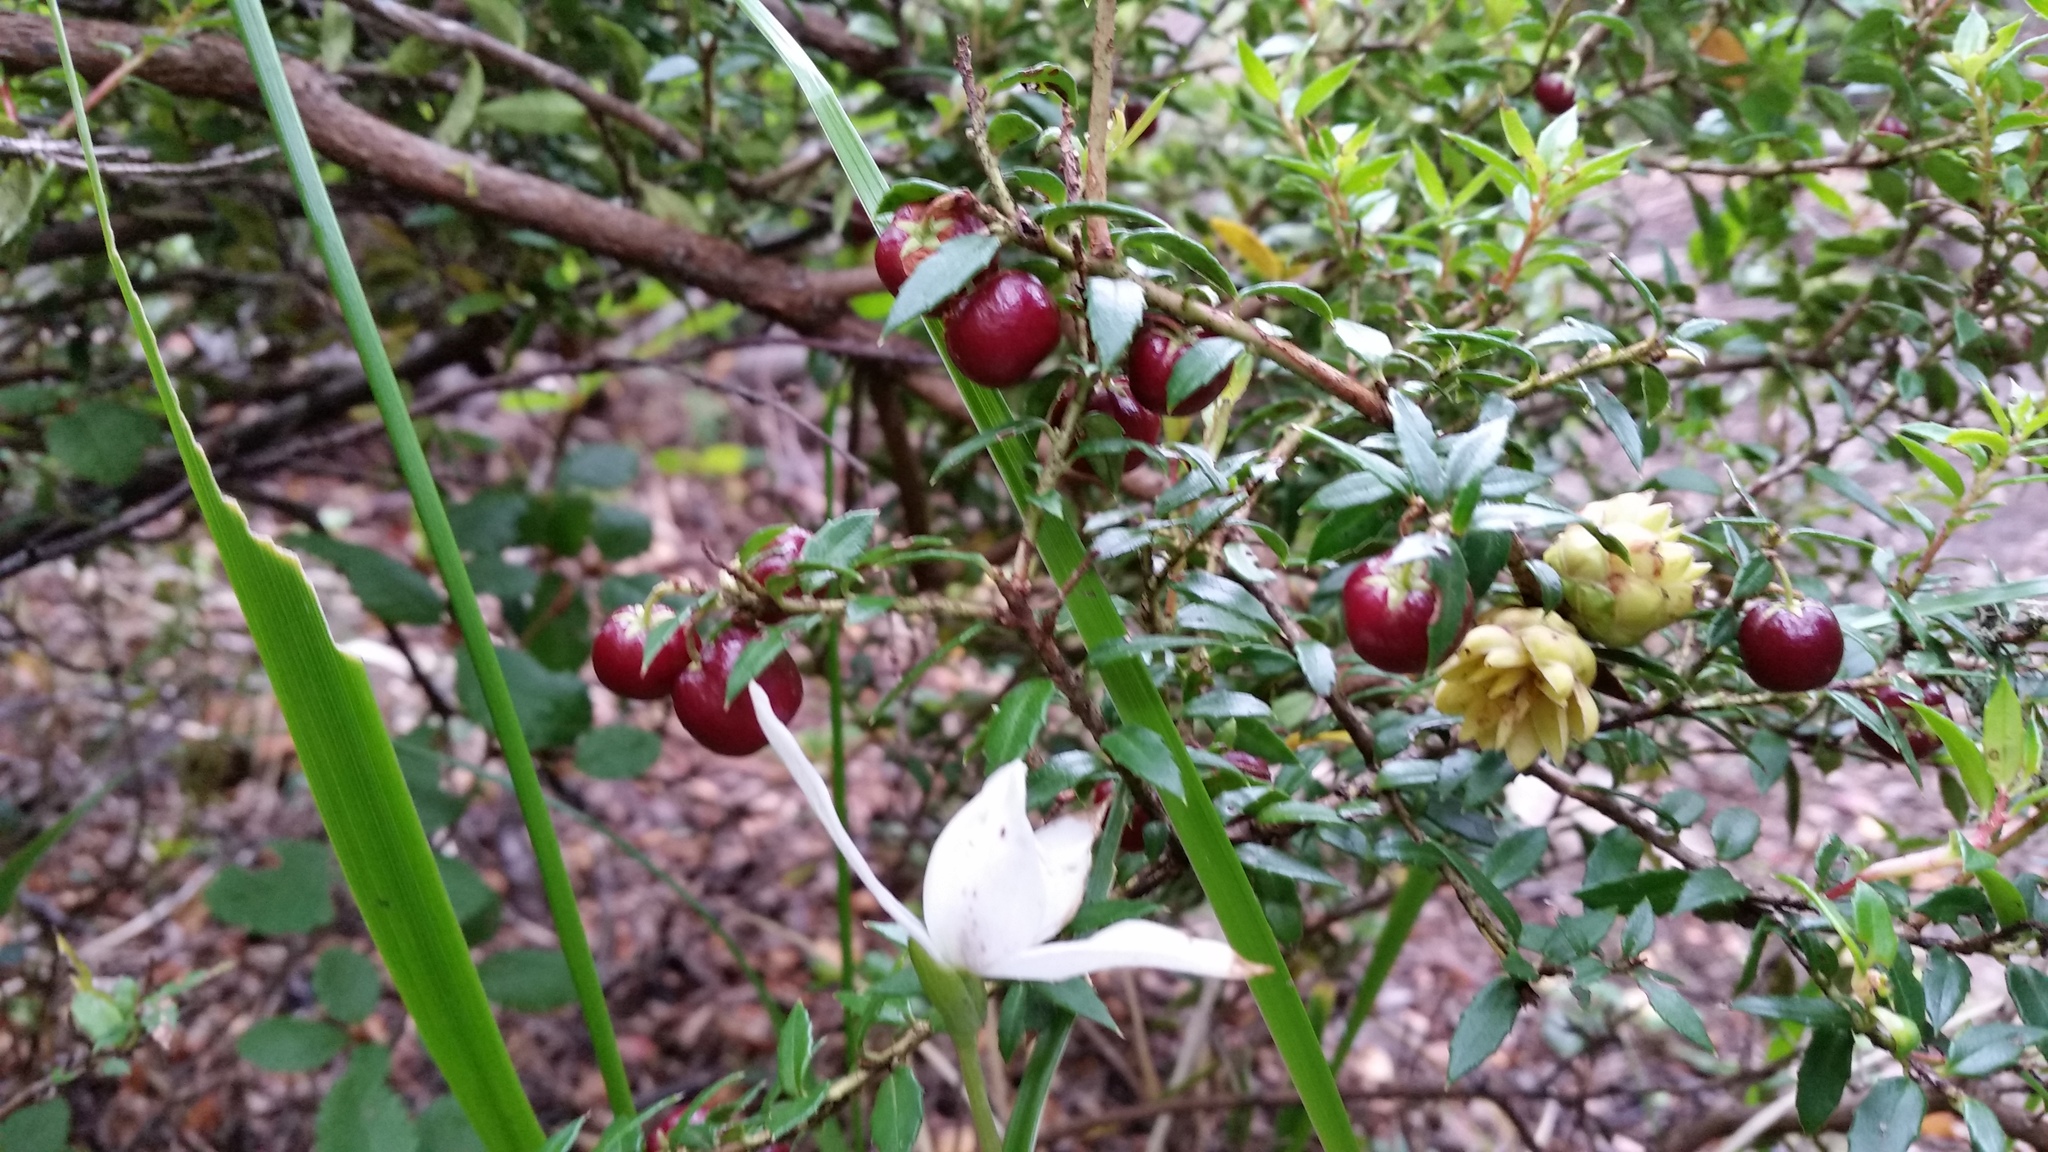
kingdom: Plantae
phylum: Tracheophyta
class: Magnoliopsida
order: Ericales
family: Ericaceae
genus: Gaultheria
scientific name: Gaultheria mucronata
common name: Prickly heath
